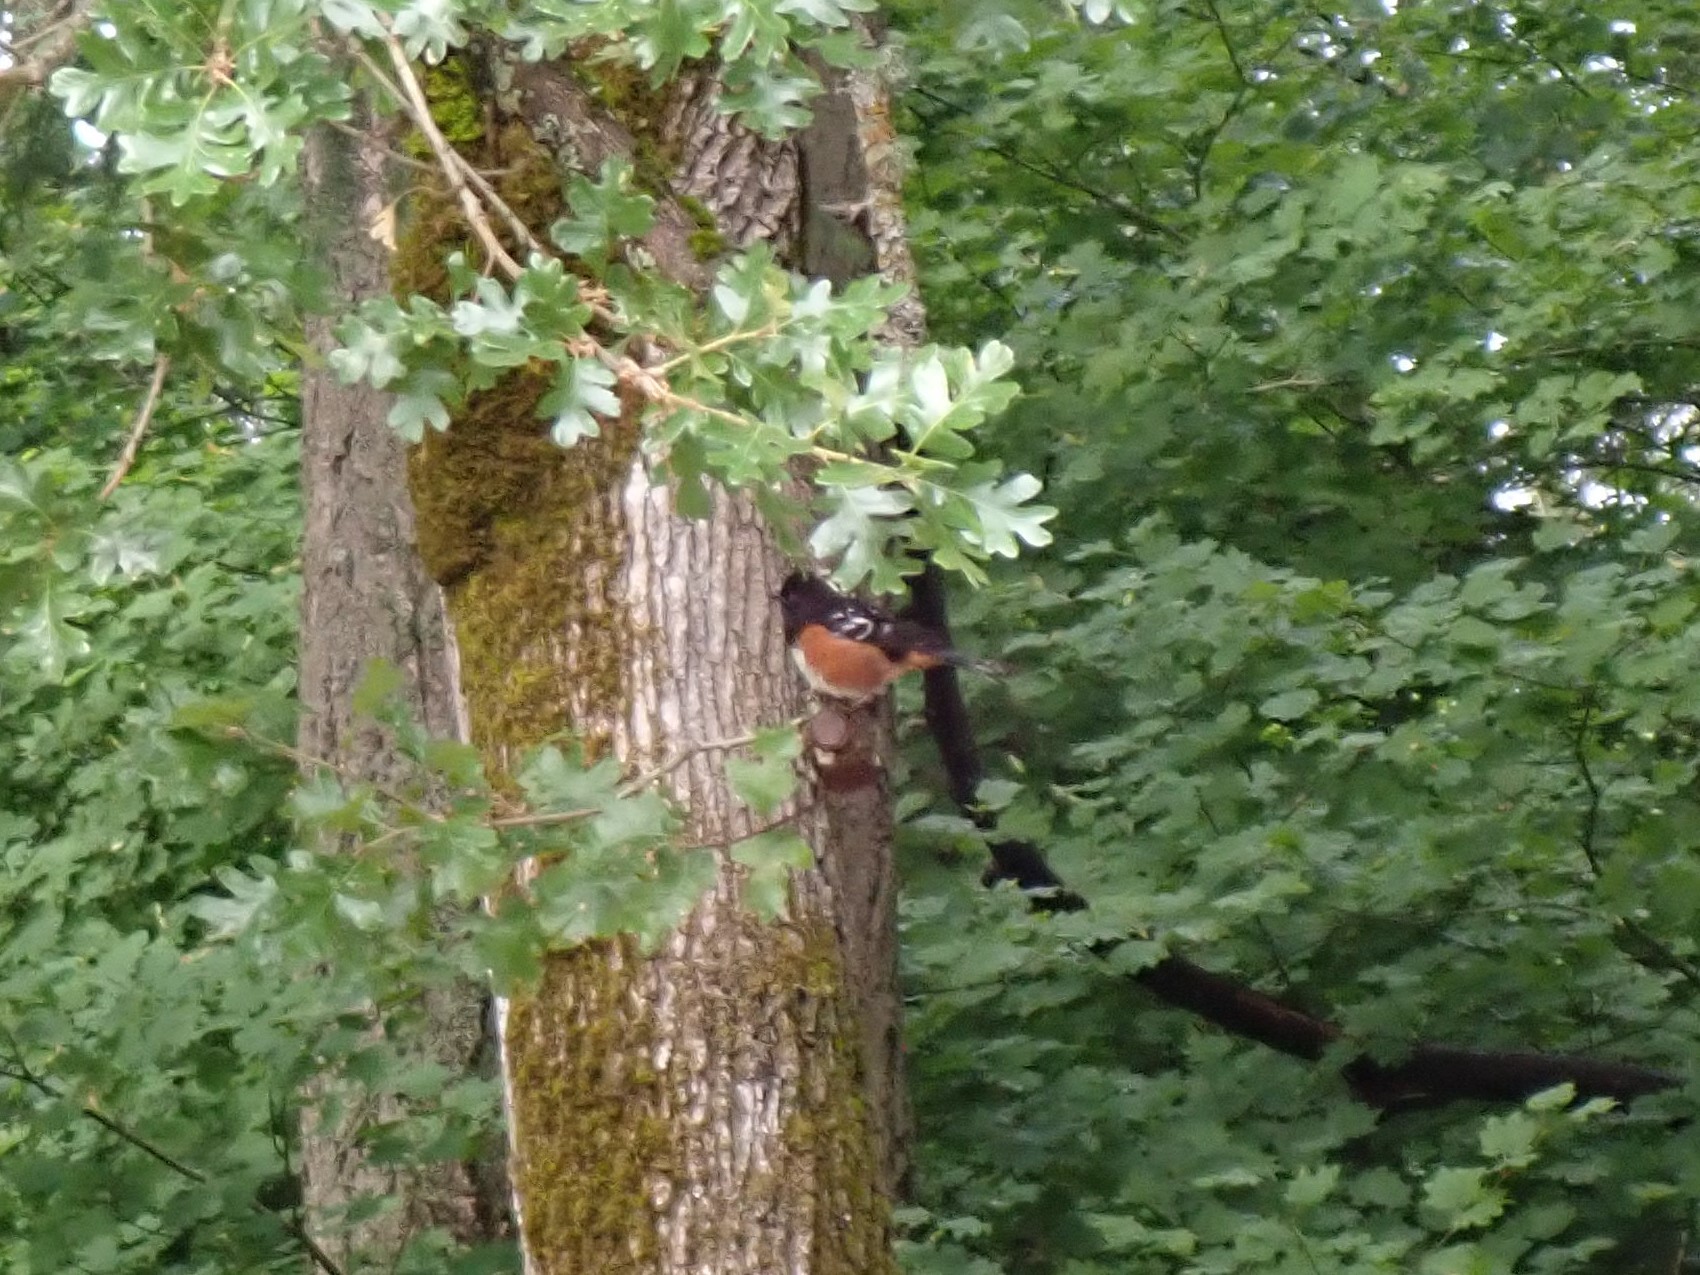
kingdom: Animalia
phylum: Chordata
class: Aves
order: Passeriformes
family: Passerellidae
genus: Pipilo
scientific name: Pipilo maculatus
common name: Spotted towhee
